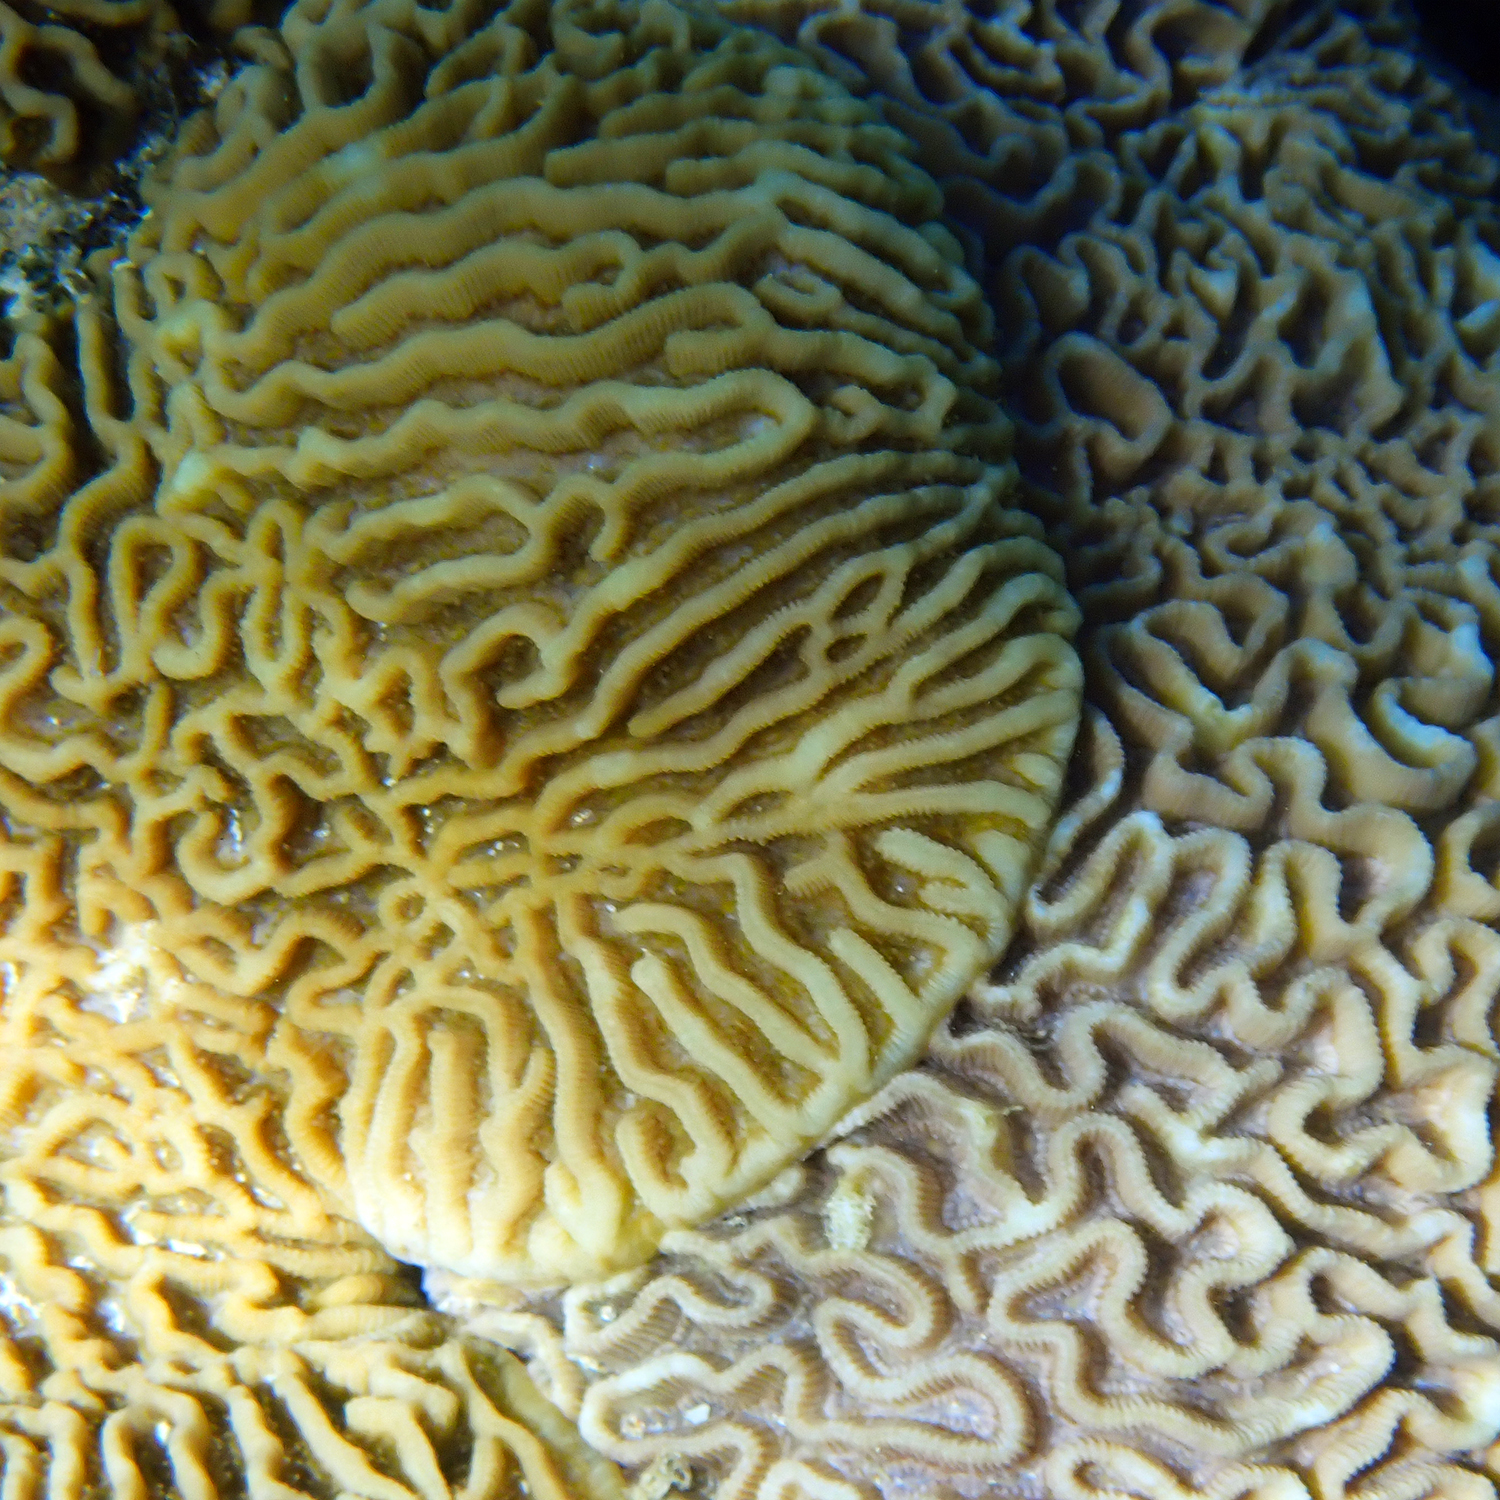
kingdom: Animalia
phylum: Cnidaria
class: Anthozoa
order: Scleractinia
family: Merulinidae
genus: Paragoniastrea
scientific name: Paragoniastrea australensis
